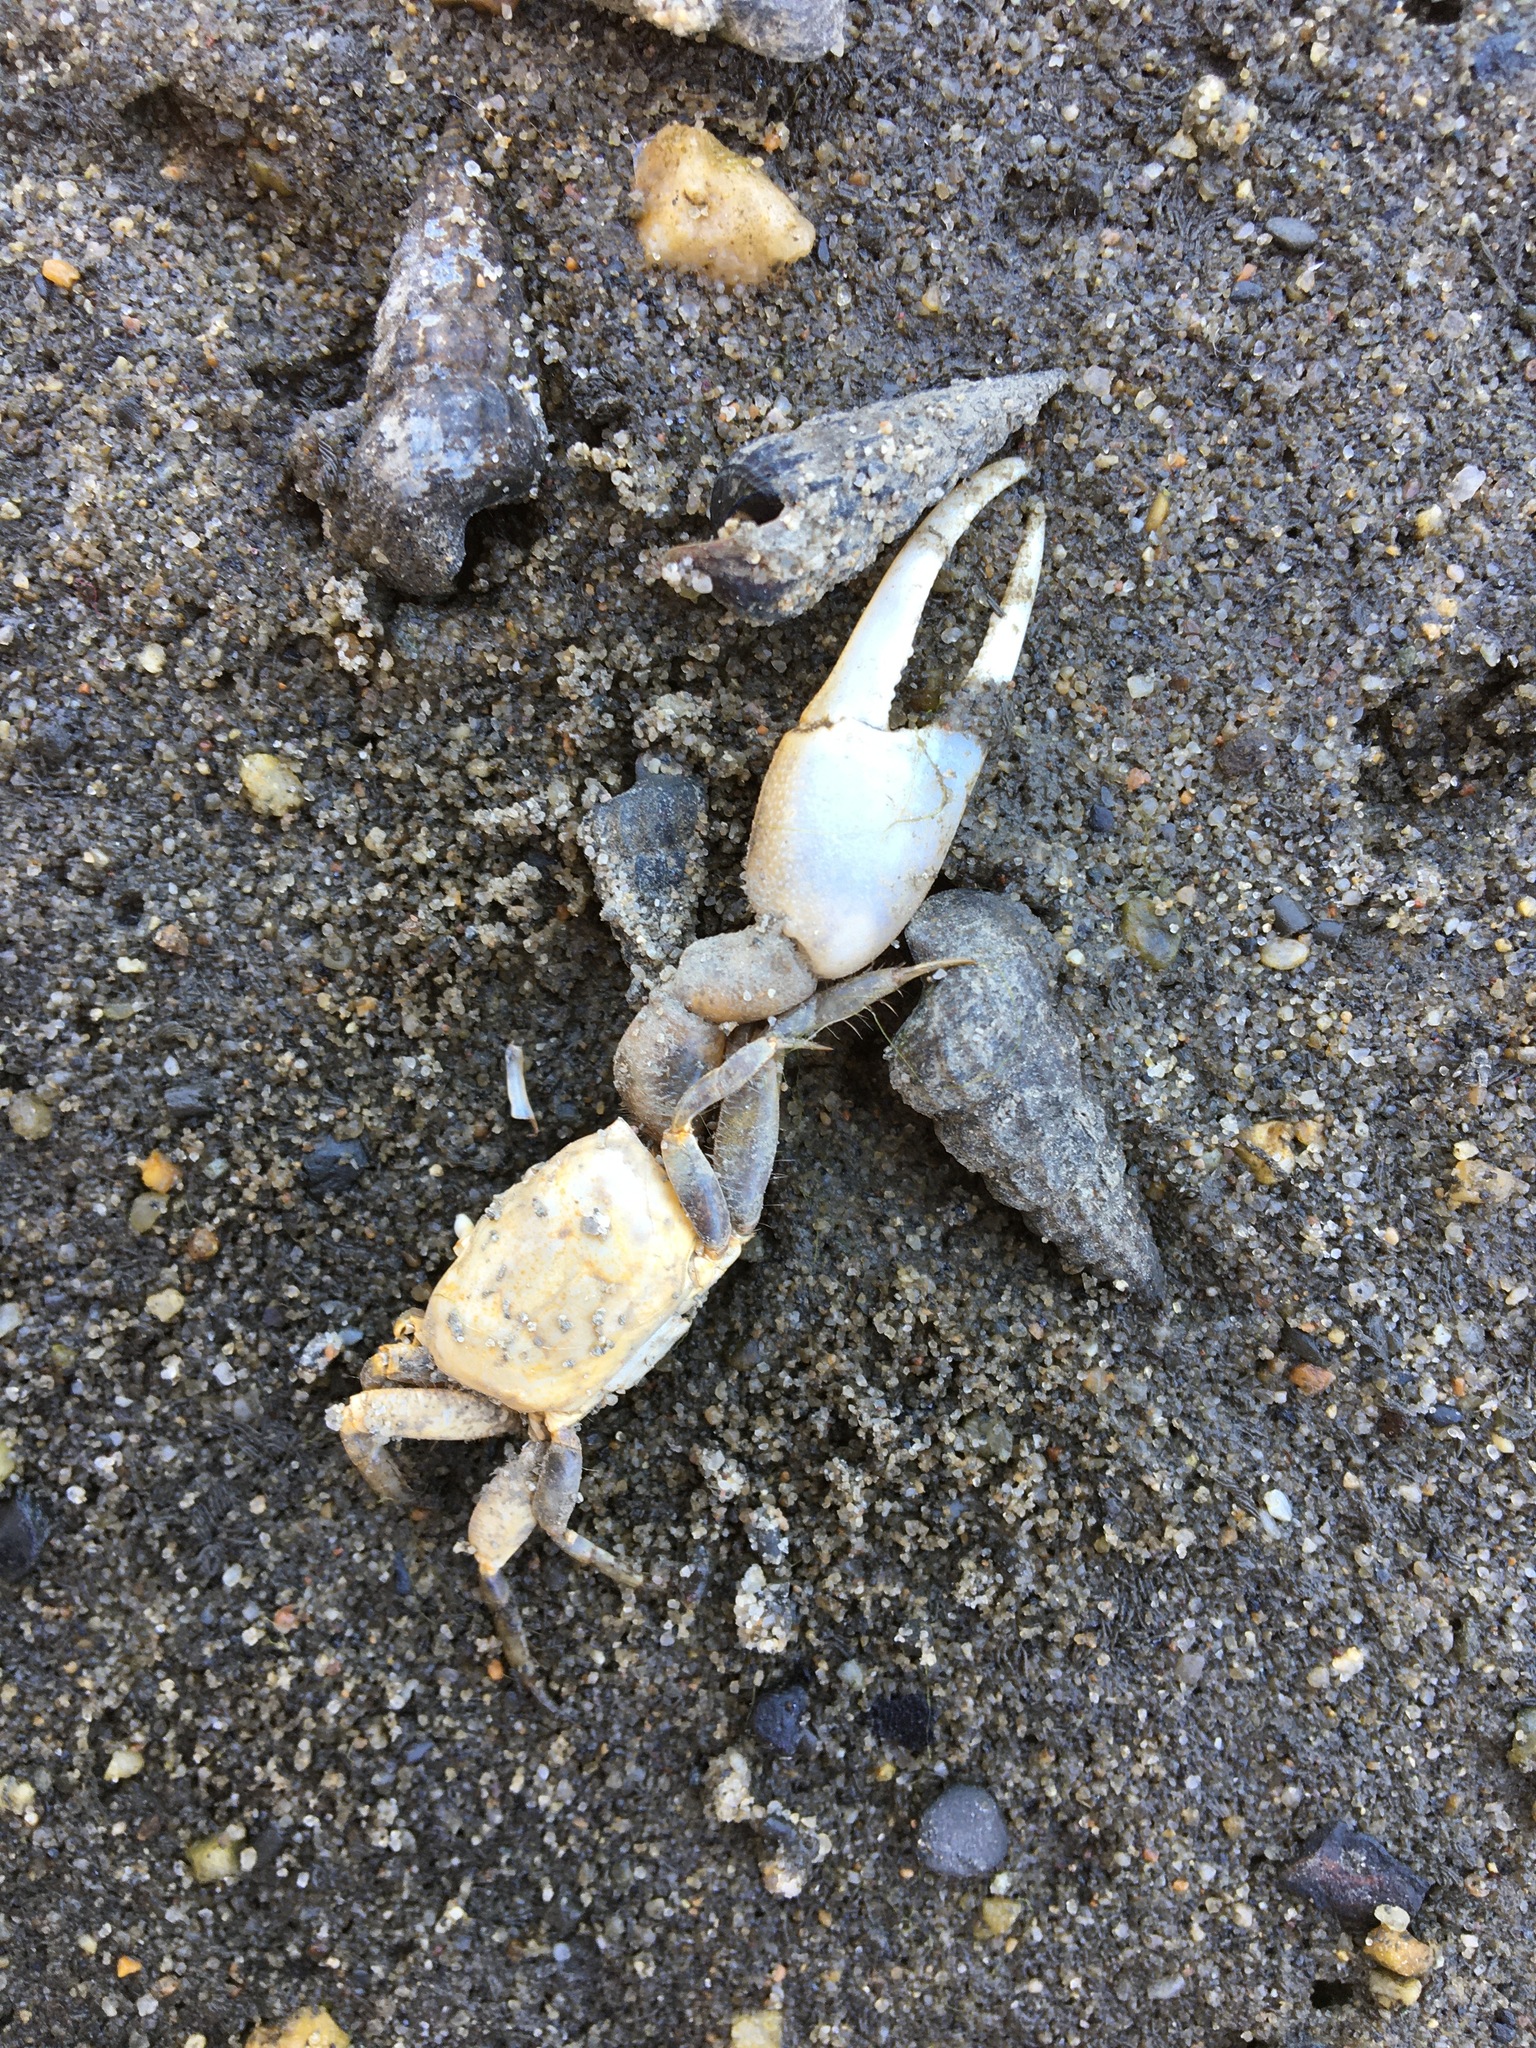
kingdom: Animalia
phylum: Arthropoda
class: Malacostraca
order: Decapoda
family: Ocypodidae
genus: Leptuca
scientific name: Leptuca crenulata
